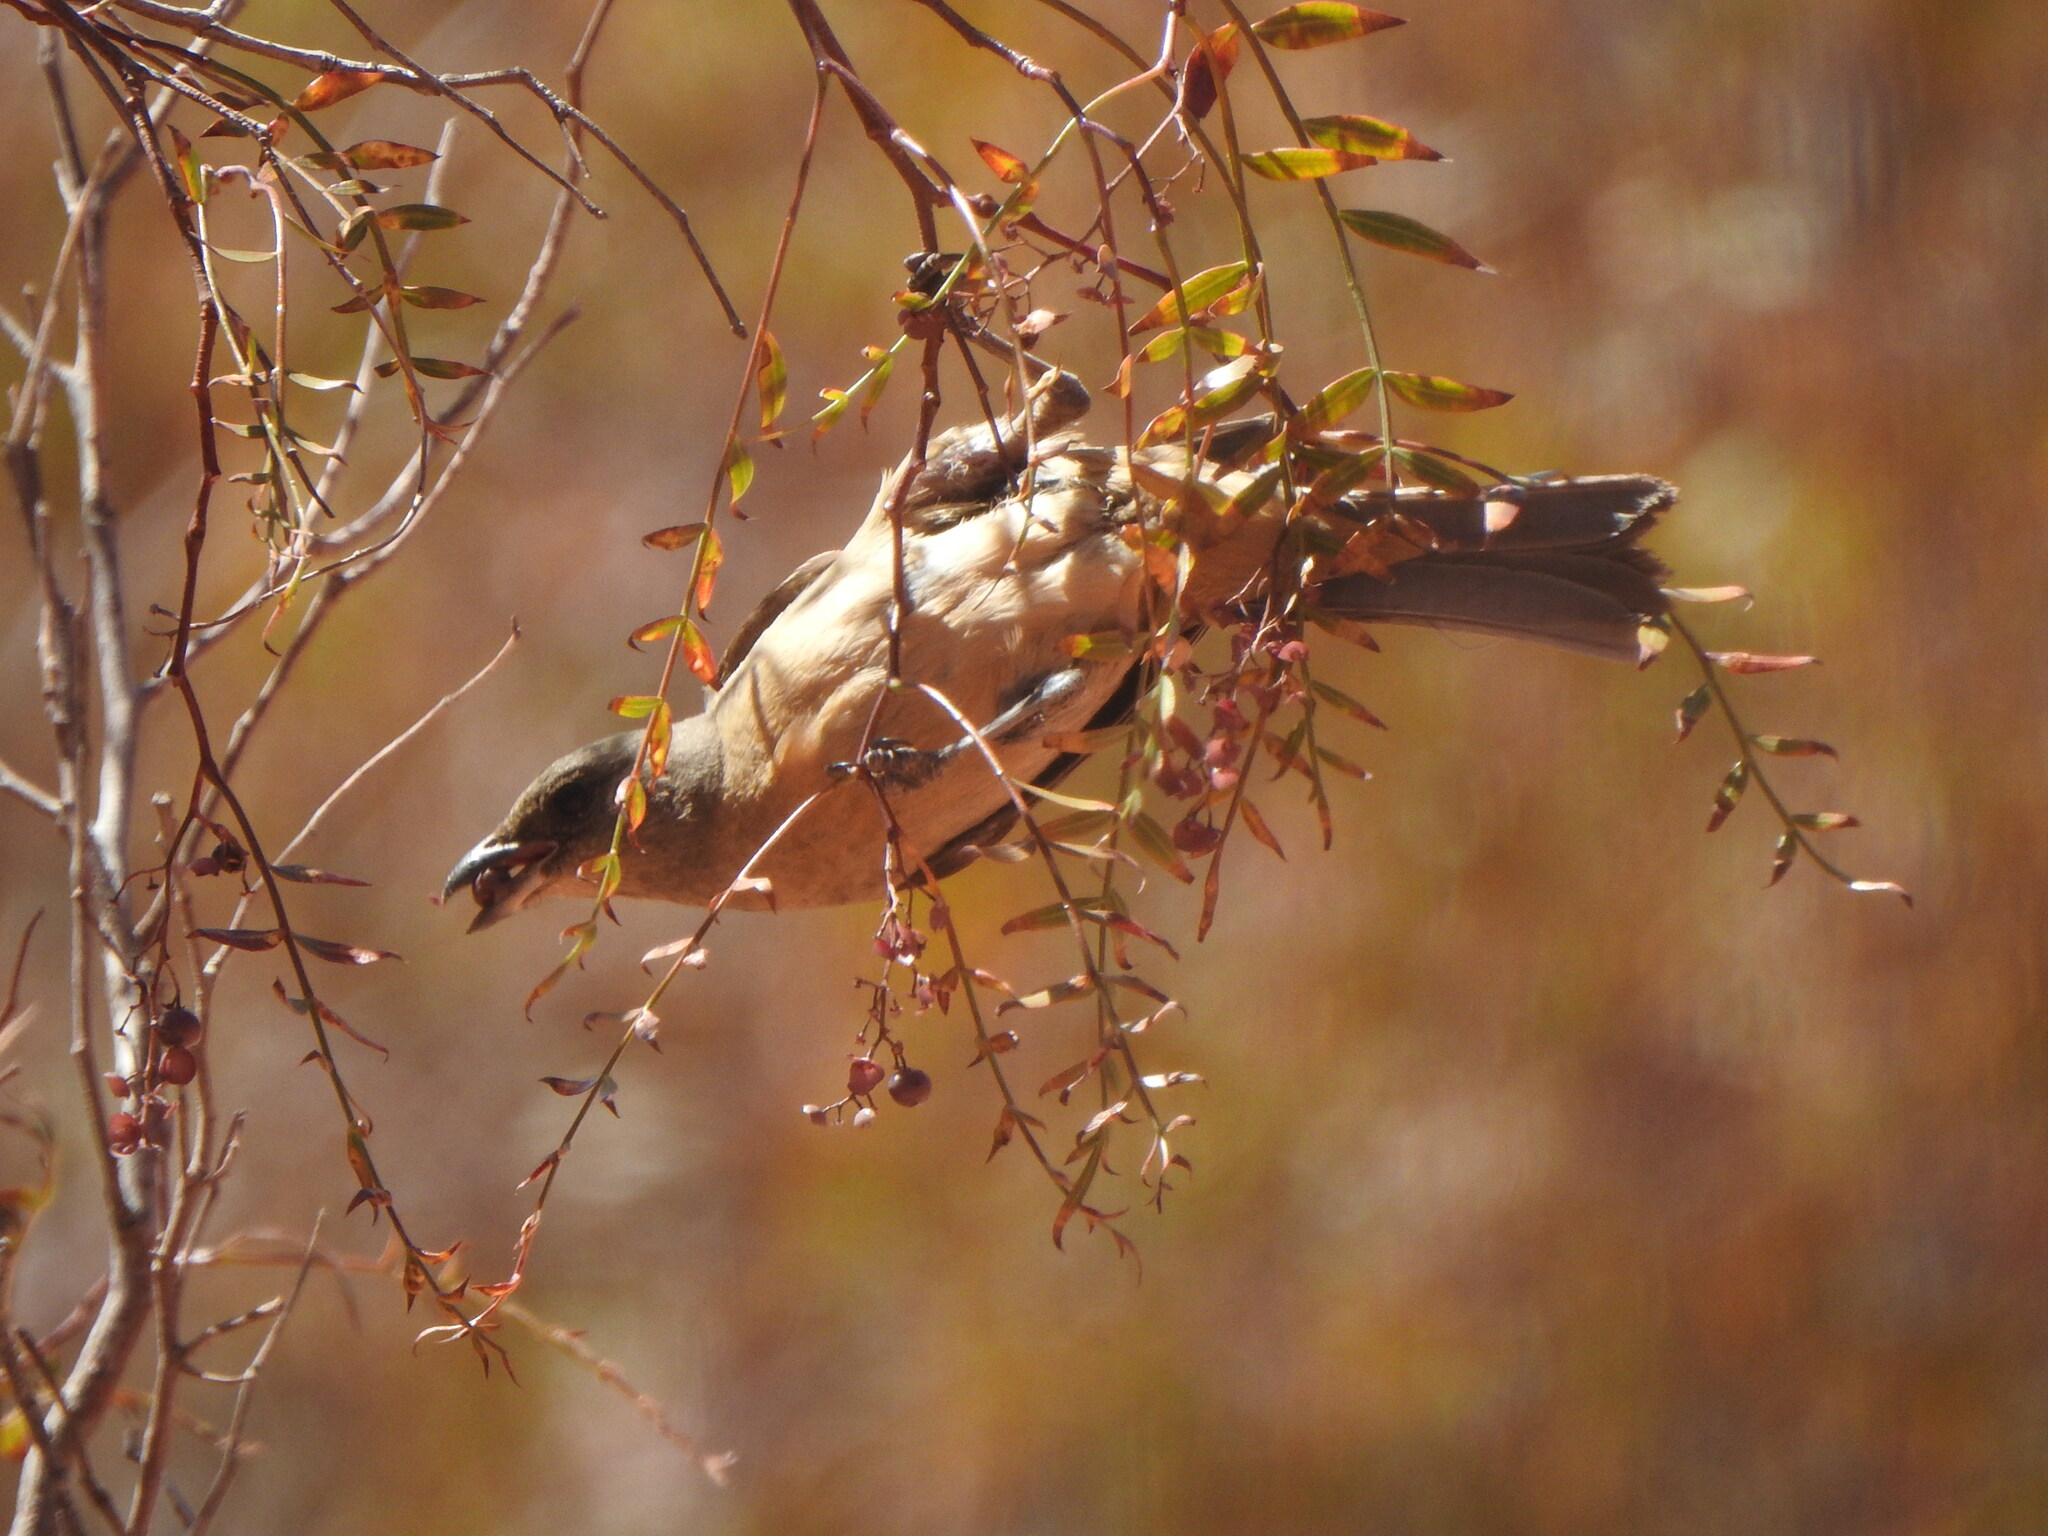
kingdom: Animalia
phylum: Chordata
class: Aves
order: Passeriformes
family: Thraupidae
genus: Rauenia
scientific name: Rauenia bonariensis
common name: Blue-and-yellow tanager
